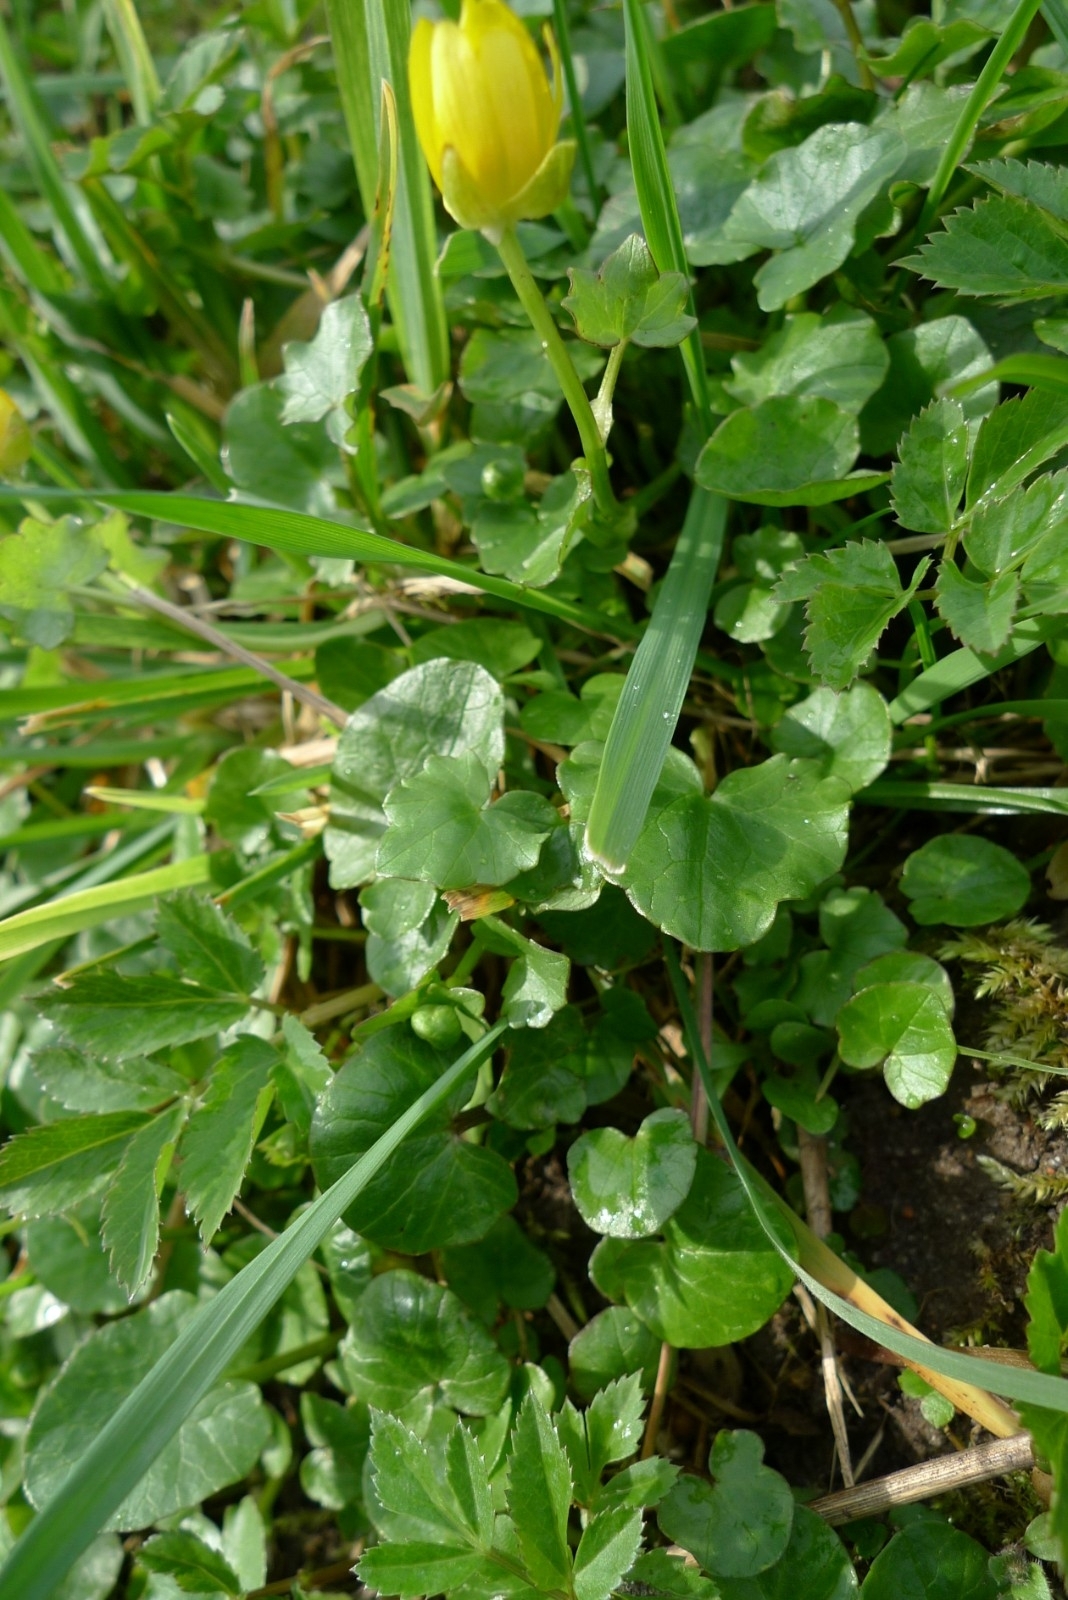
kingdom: Plantae
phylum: Tracheophyta
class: Magnoliopsida
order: Ranunculales
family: Ranunculaceae
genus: Ficaria
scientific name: Ficaria verna
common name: Lesser celandine
